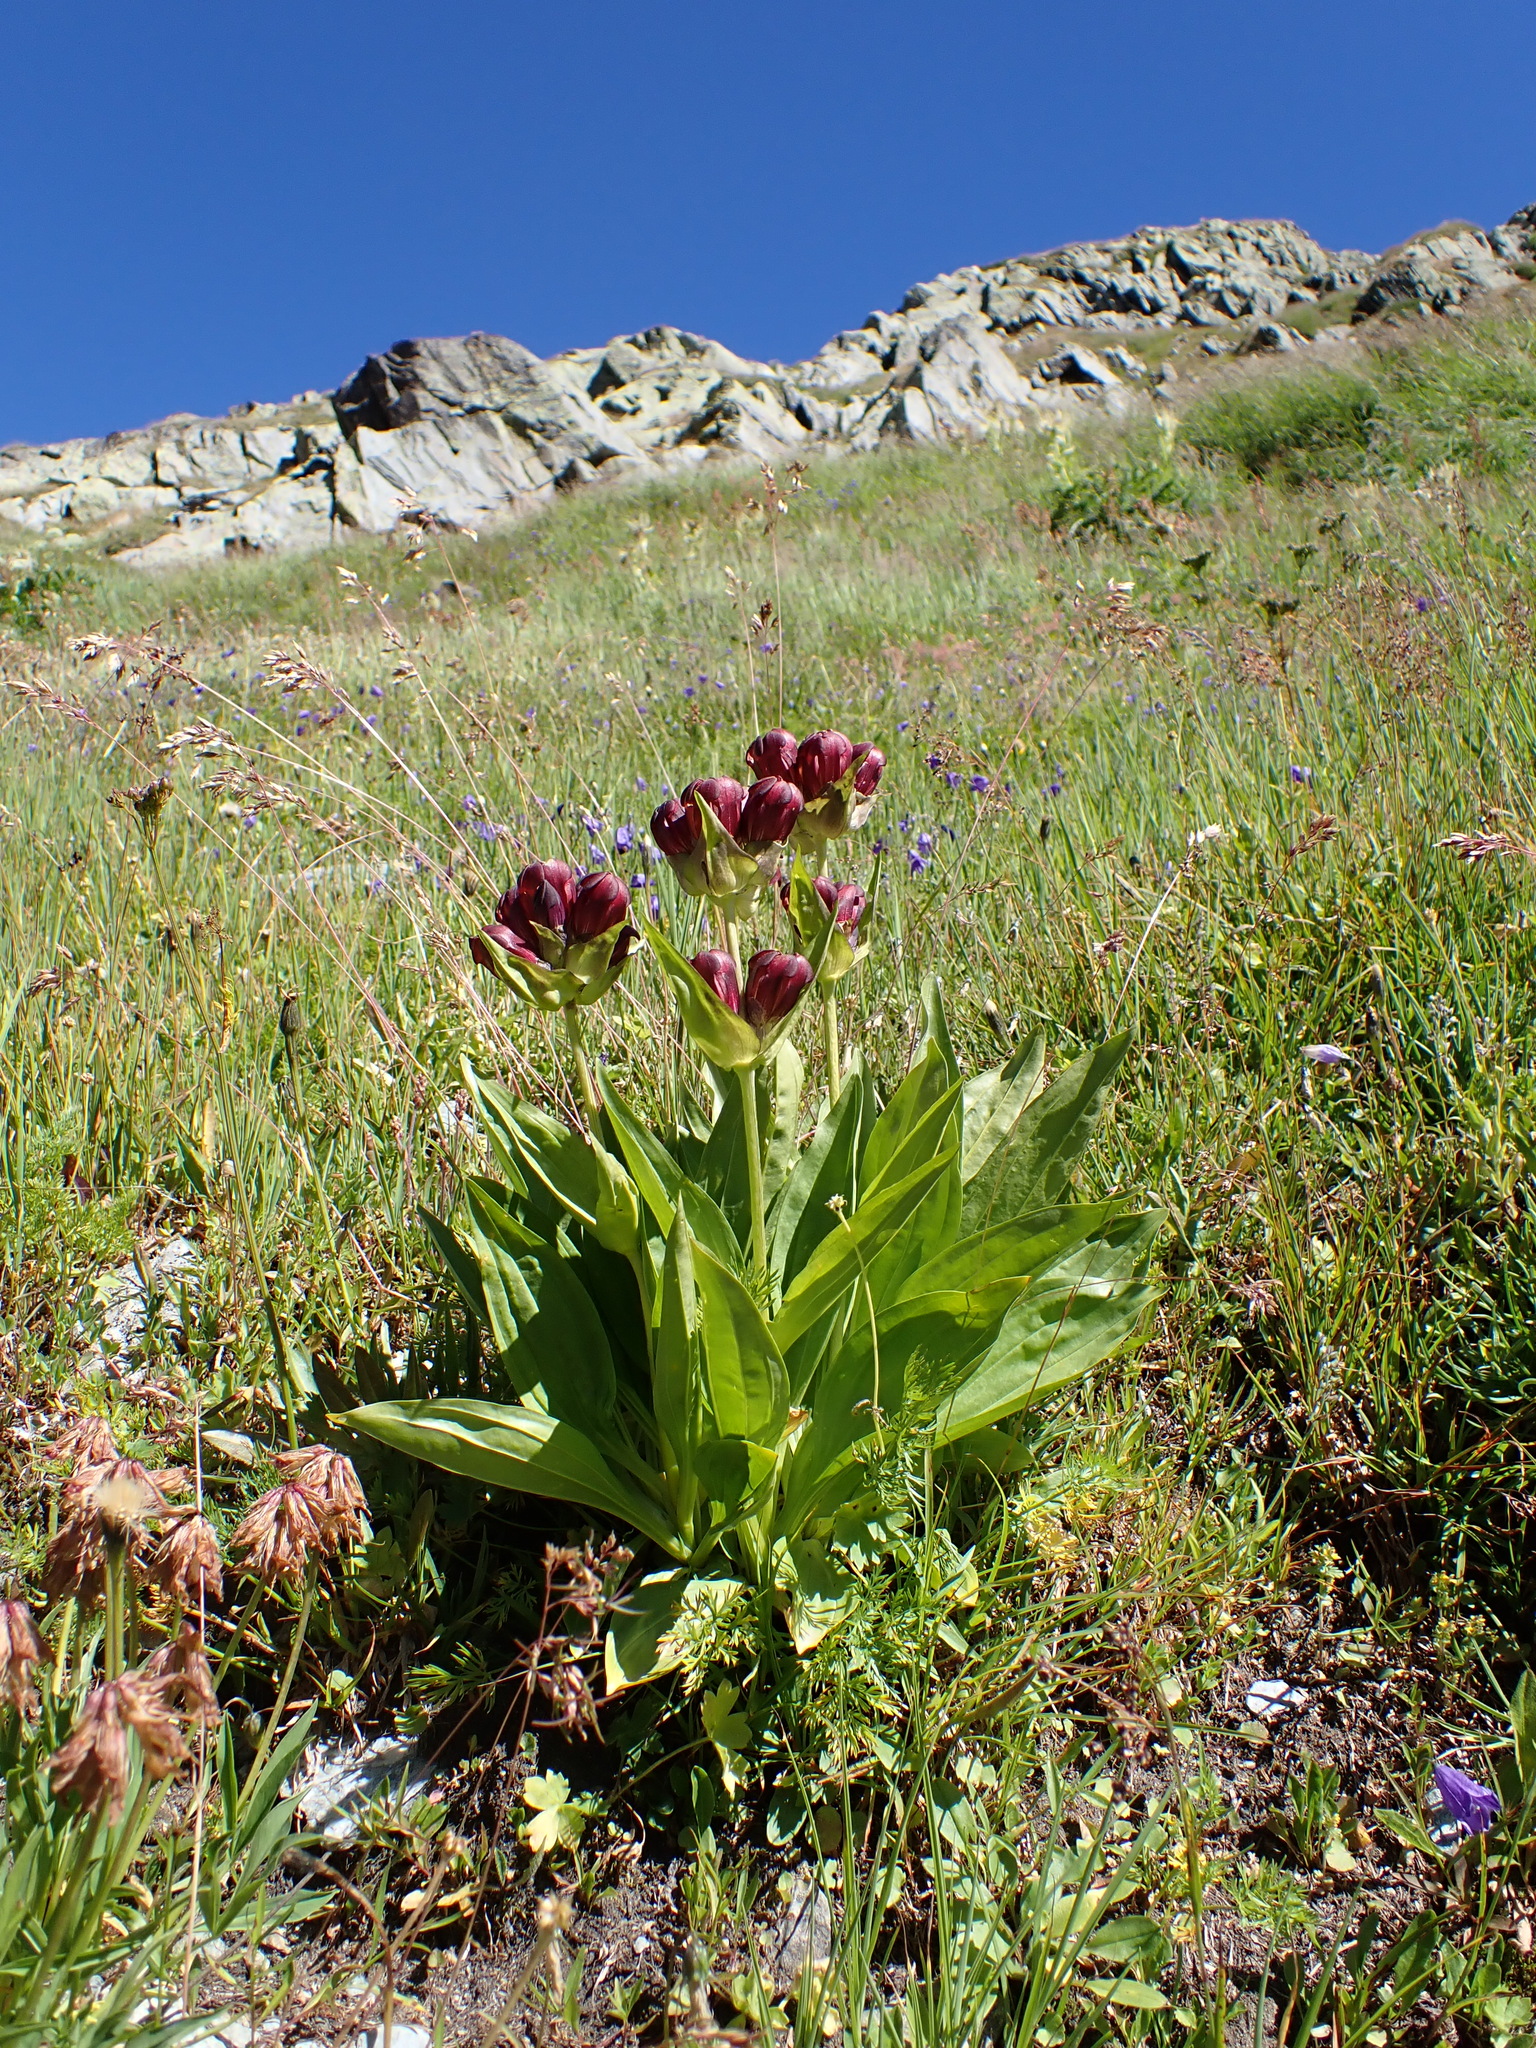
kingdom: Plantae
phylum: Tracheophyta
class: Magnoliopsida
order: Gentianales
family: Gentianaceae
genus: Gentiana
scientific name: Gentiana purpurea
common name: Purple gentian
